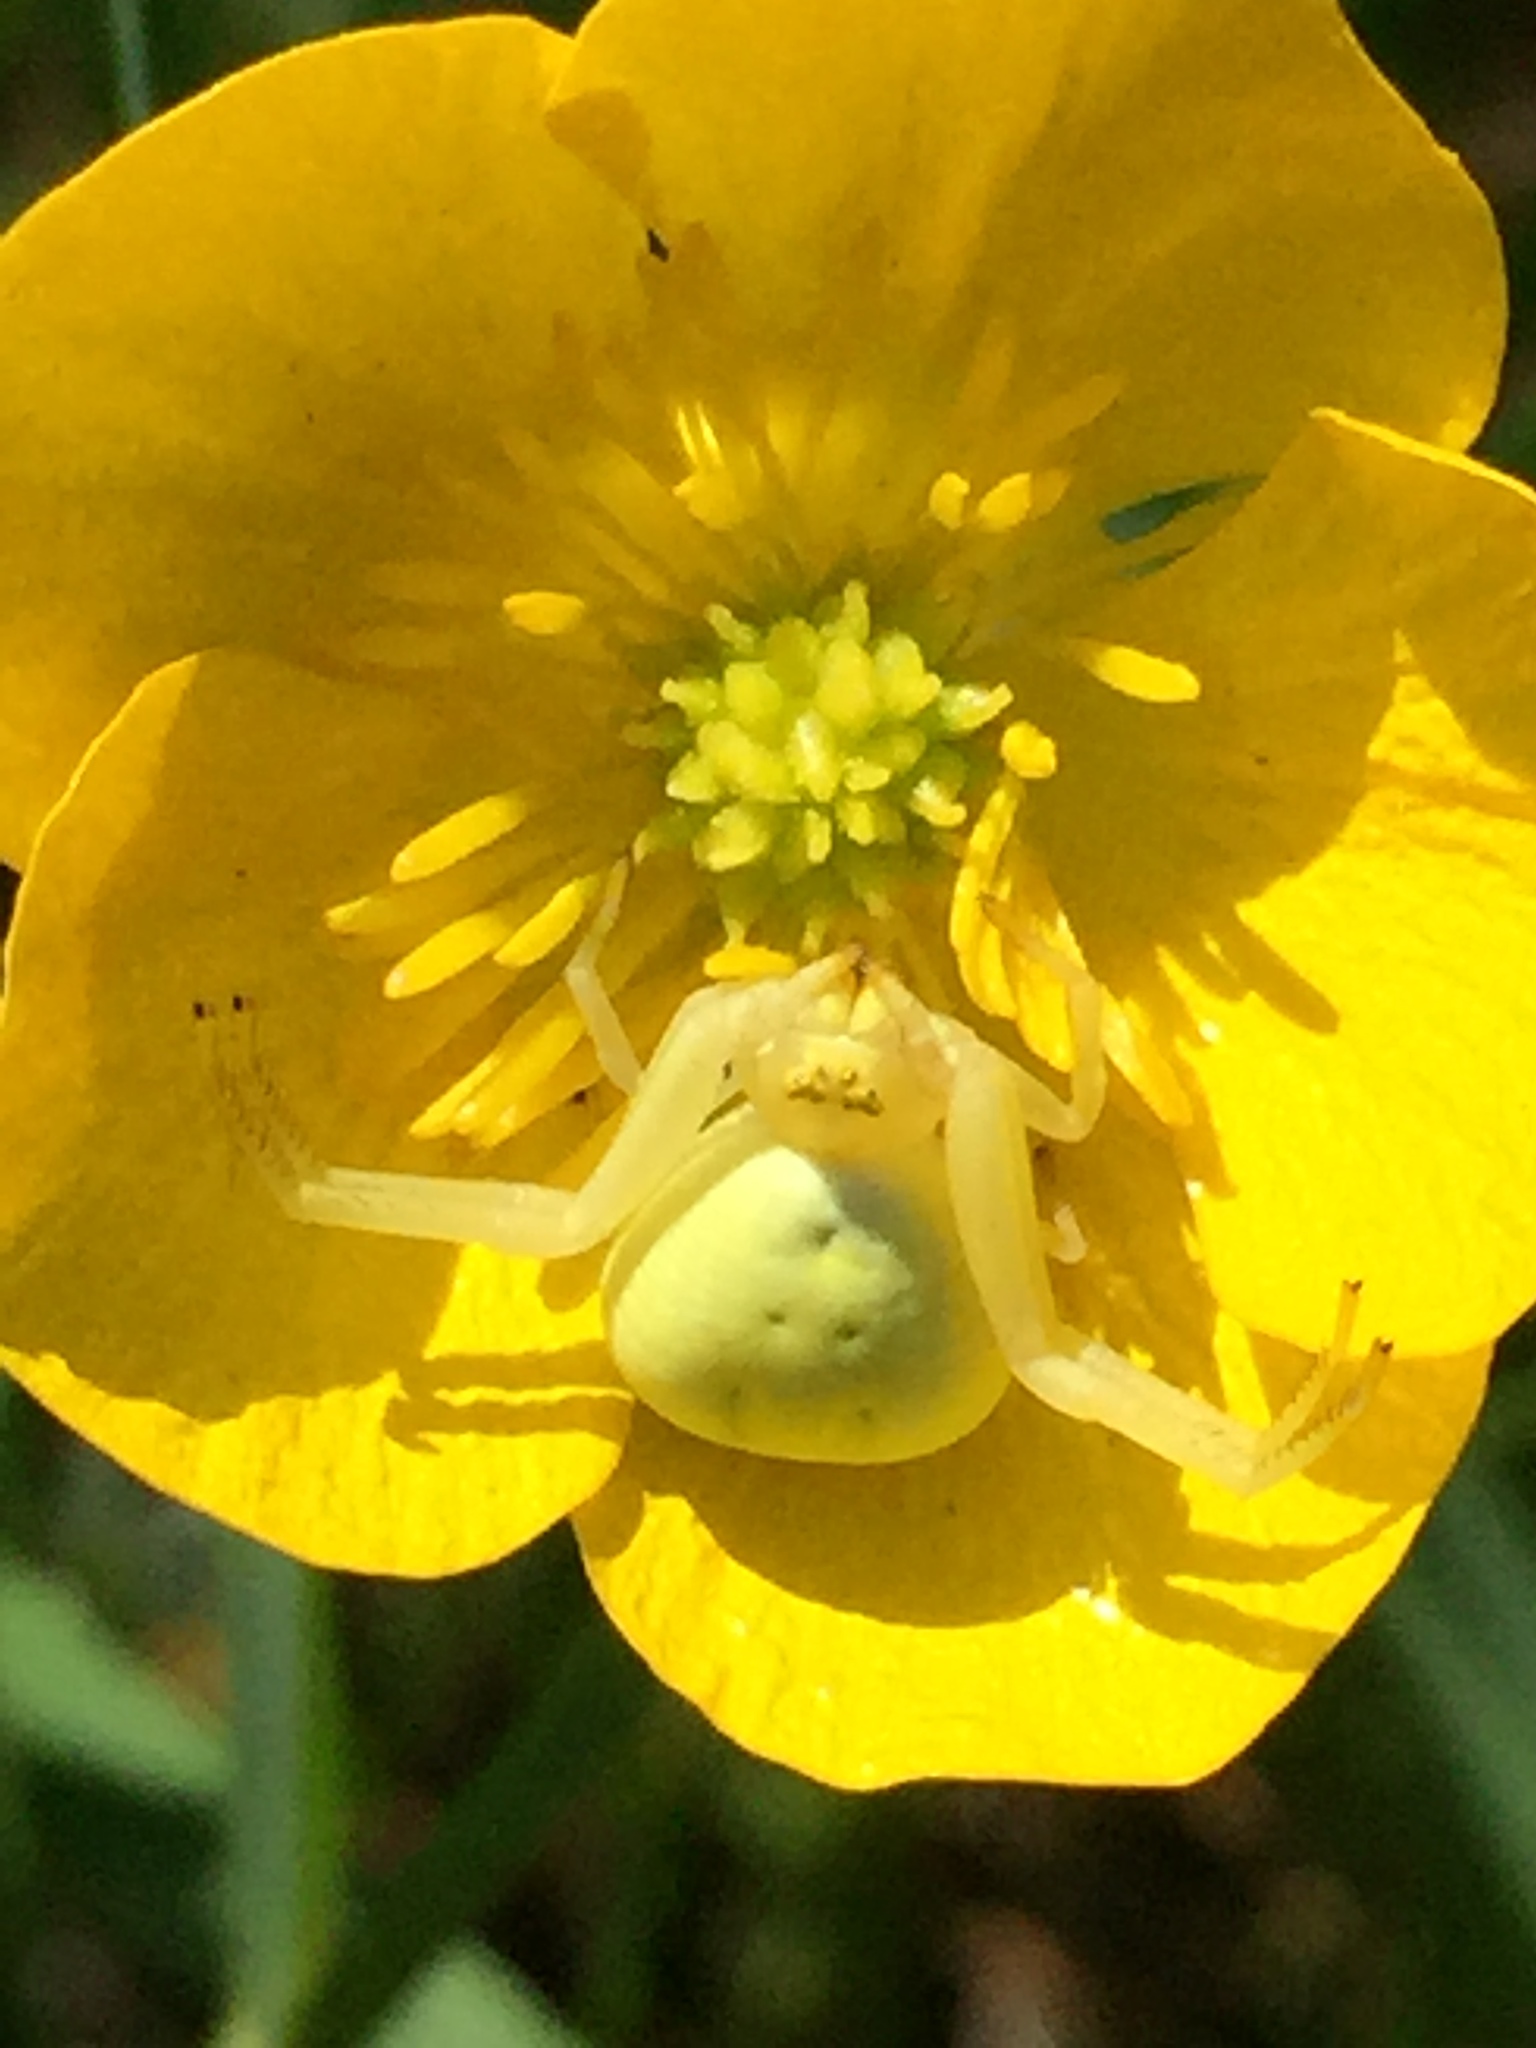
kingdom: Animalia
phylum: Arthropoda
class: Arachnida
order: Araneae
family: Thomisidae
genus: Misumena
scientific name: Misumena vatia
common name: Goldenrod crab spider
